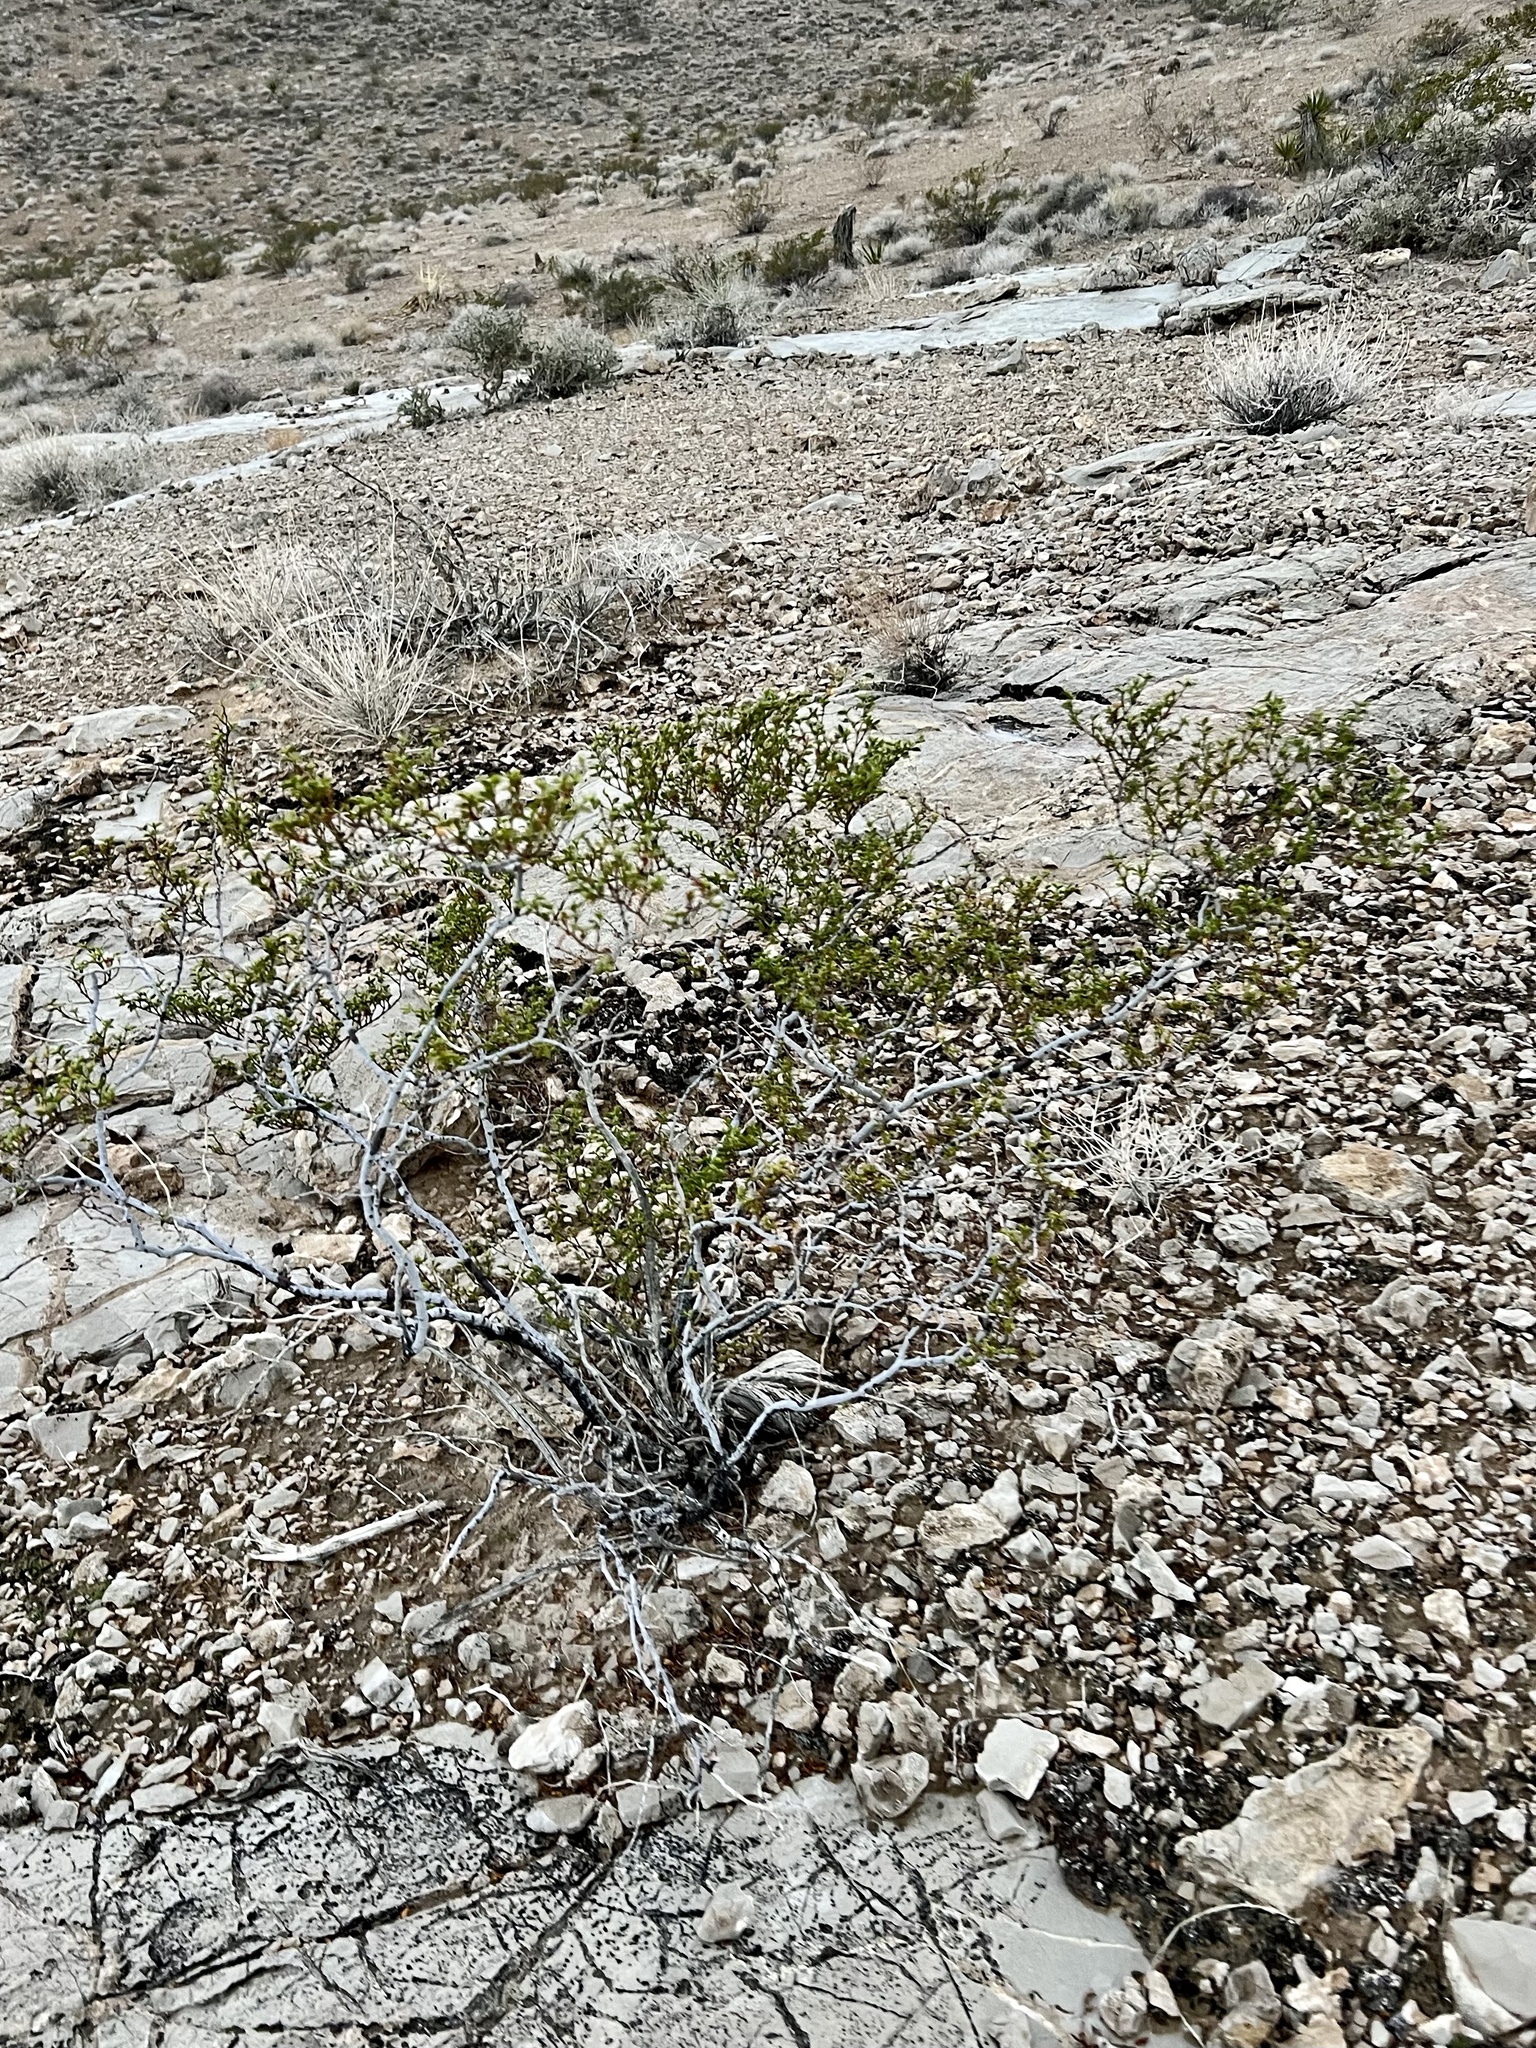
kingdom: Plantae
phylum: Tracheophyta
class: Magnoliopsida
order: Zygophyllales
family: Zygophyllaceae
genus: Larrea
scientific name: Larrea tridentata
